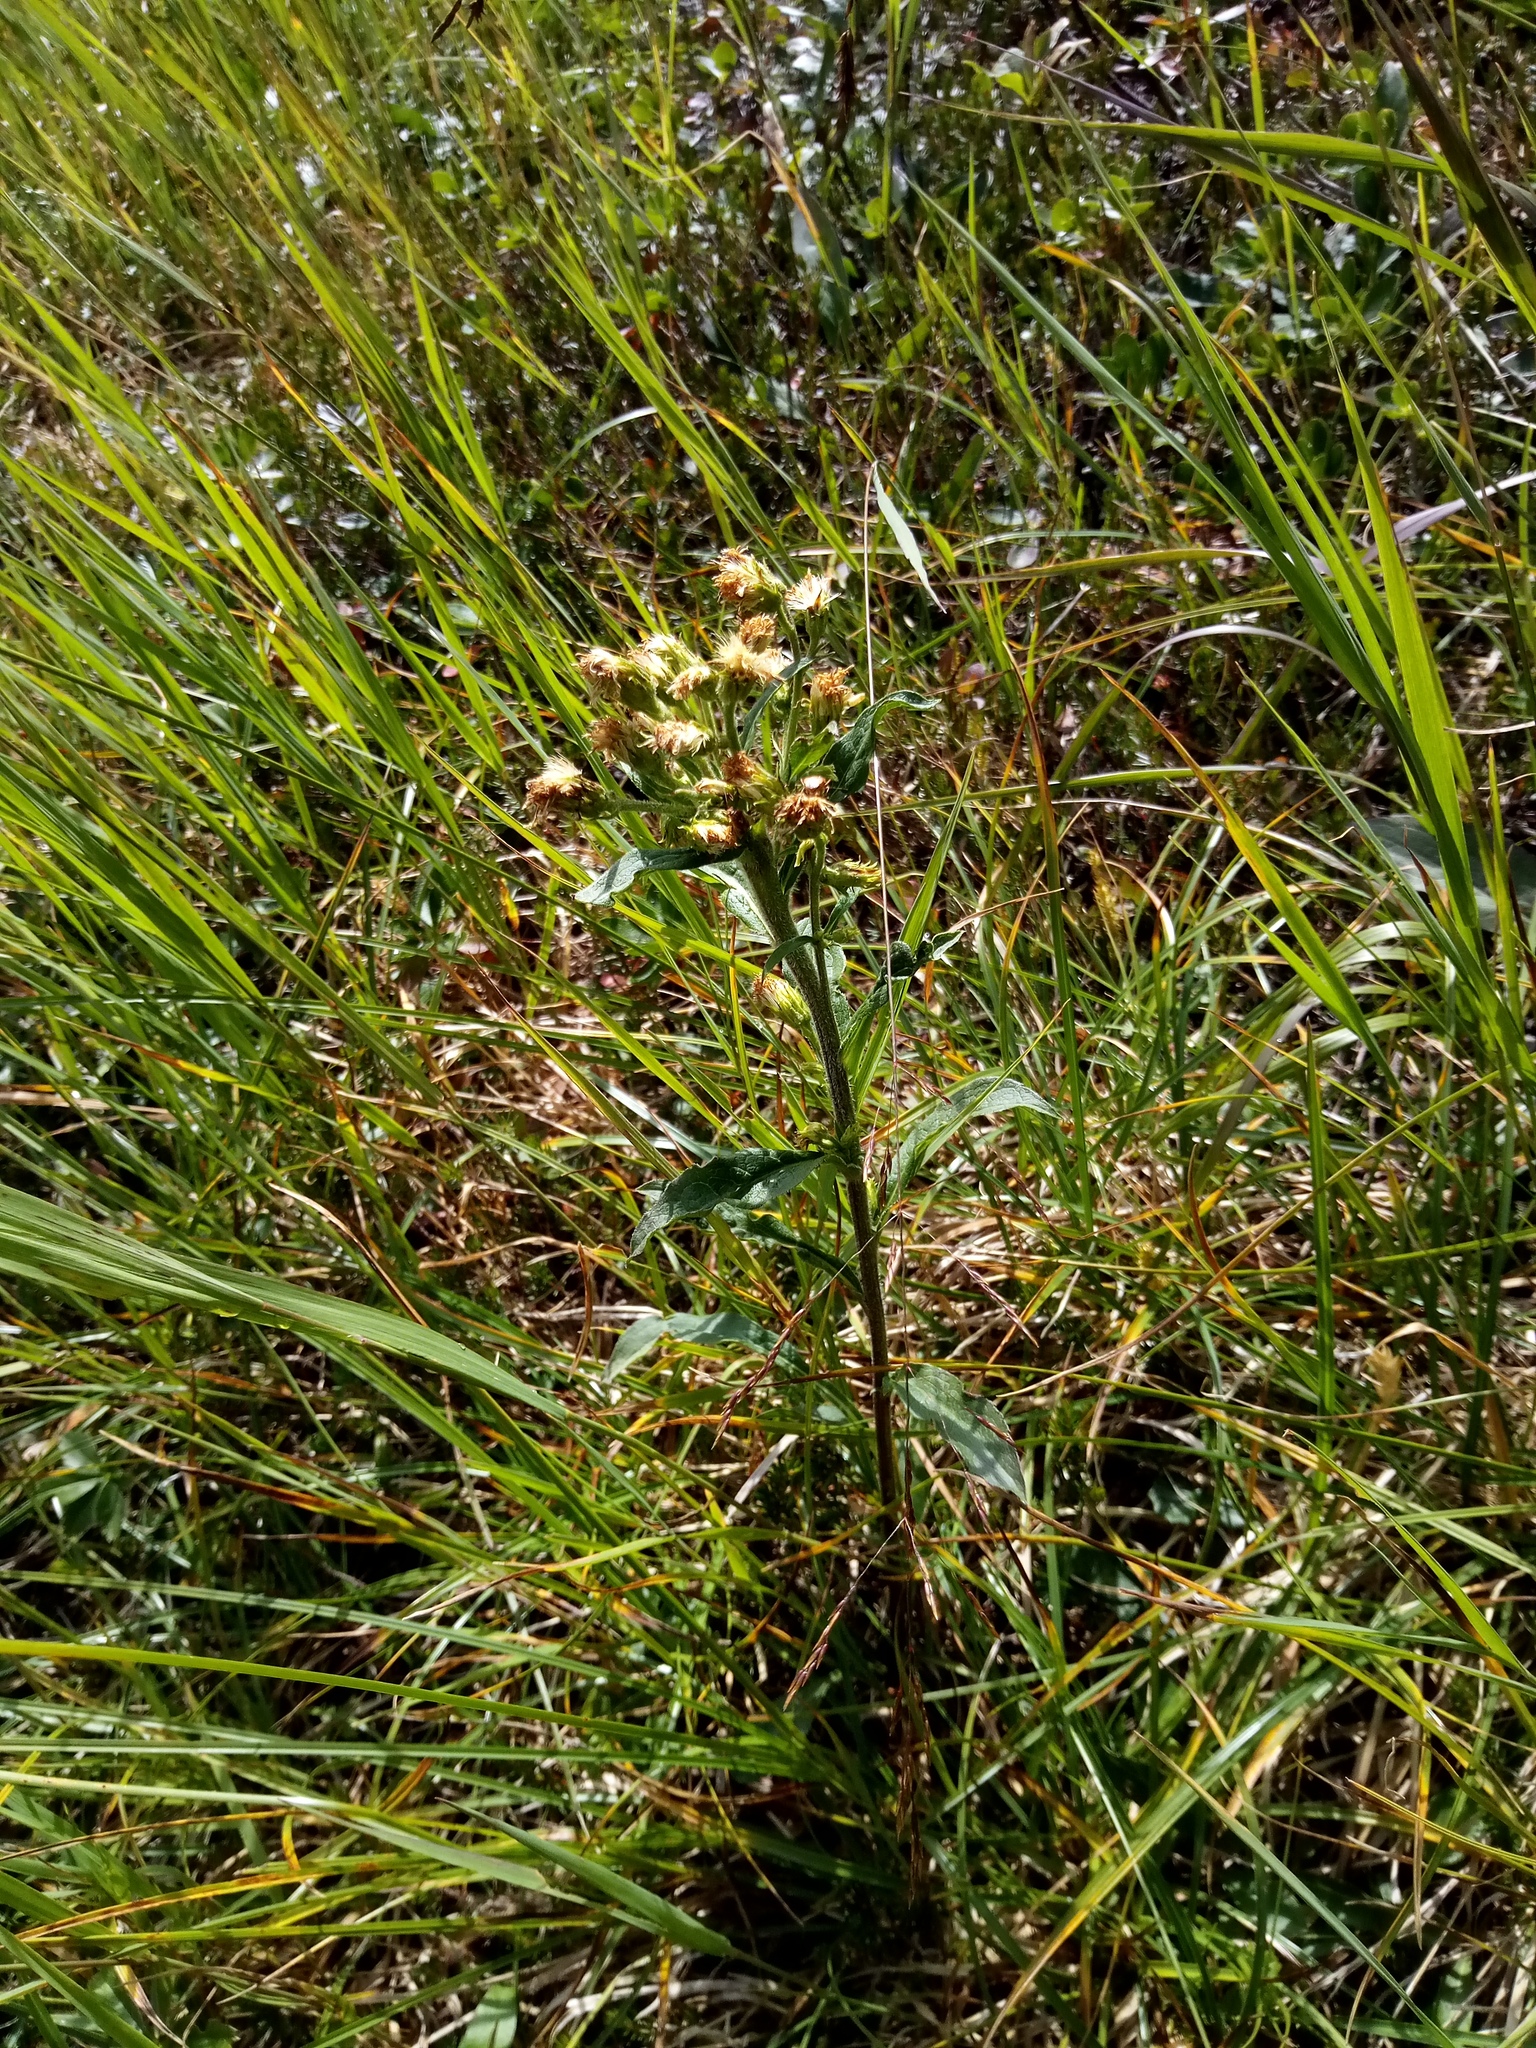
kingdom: Plantae
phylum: Tracheophyta
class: Magnoliopsida
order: Asterales
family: Asteraceae
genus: Solidago
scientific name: Solidago virgaurea
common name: Goldenrod
